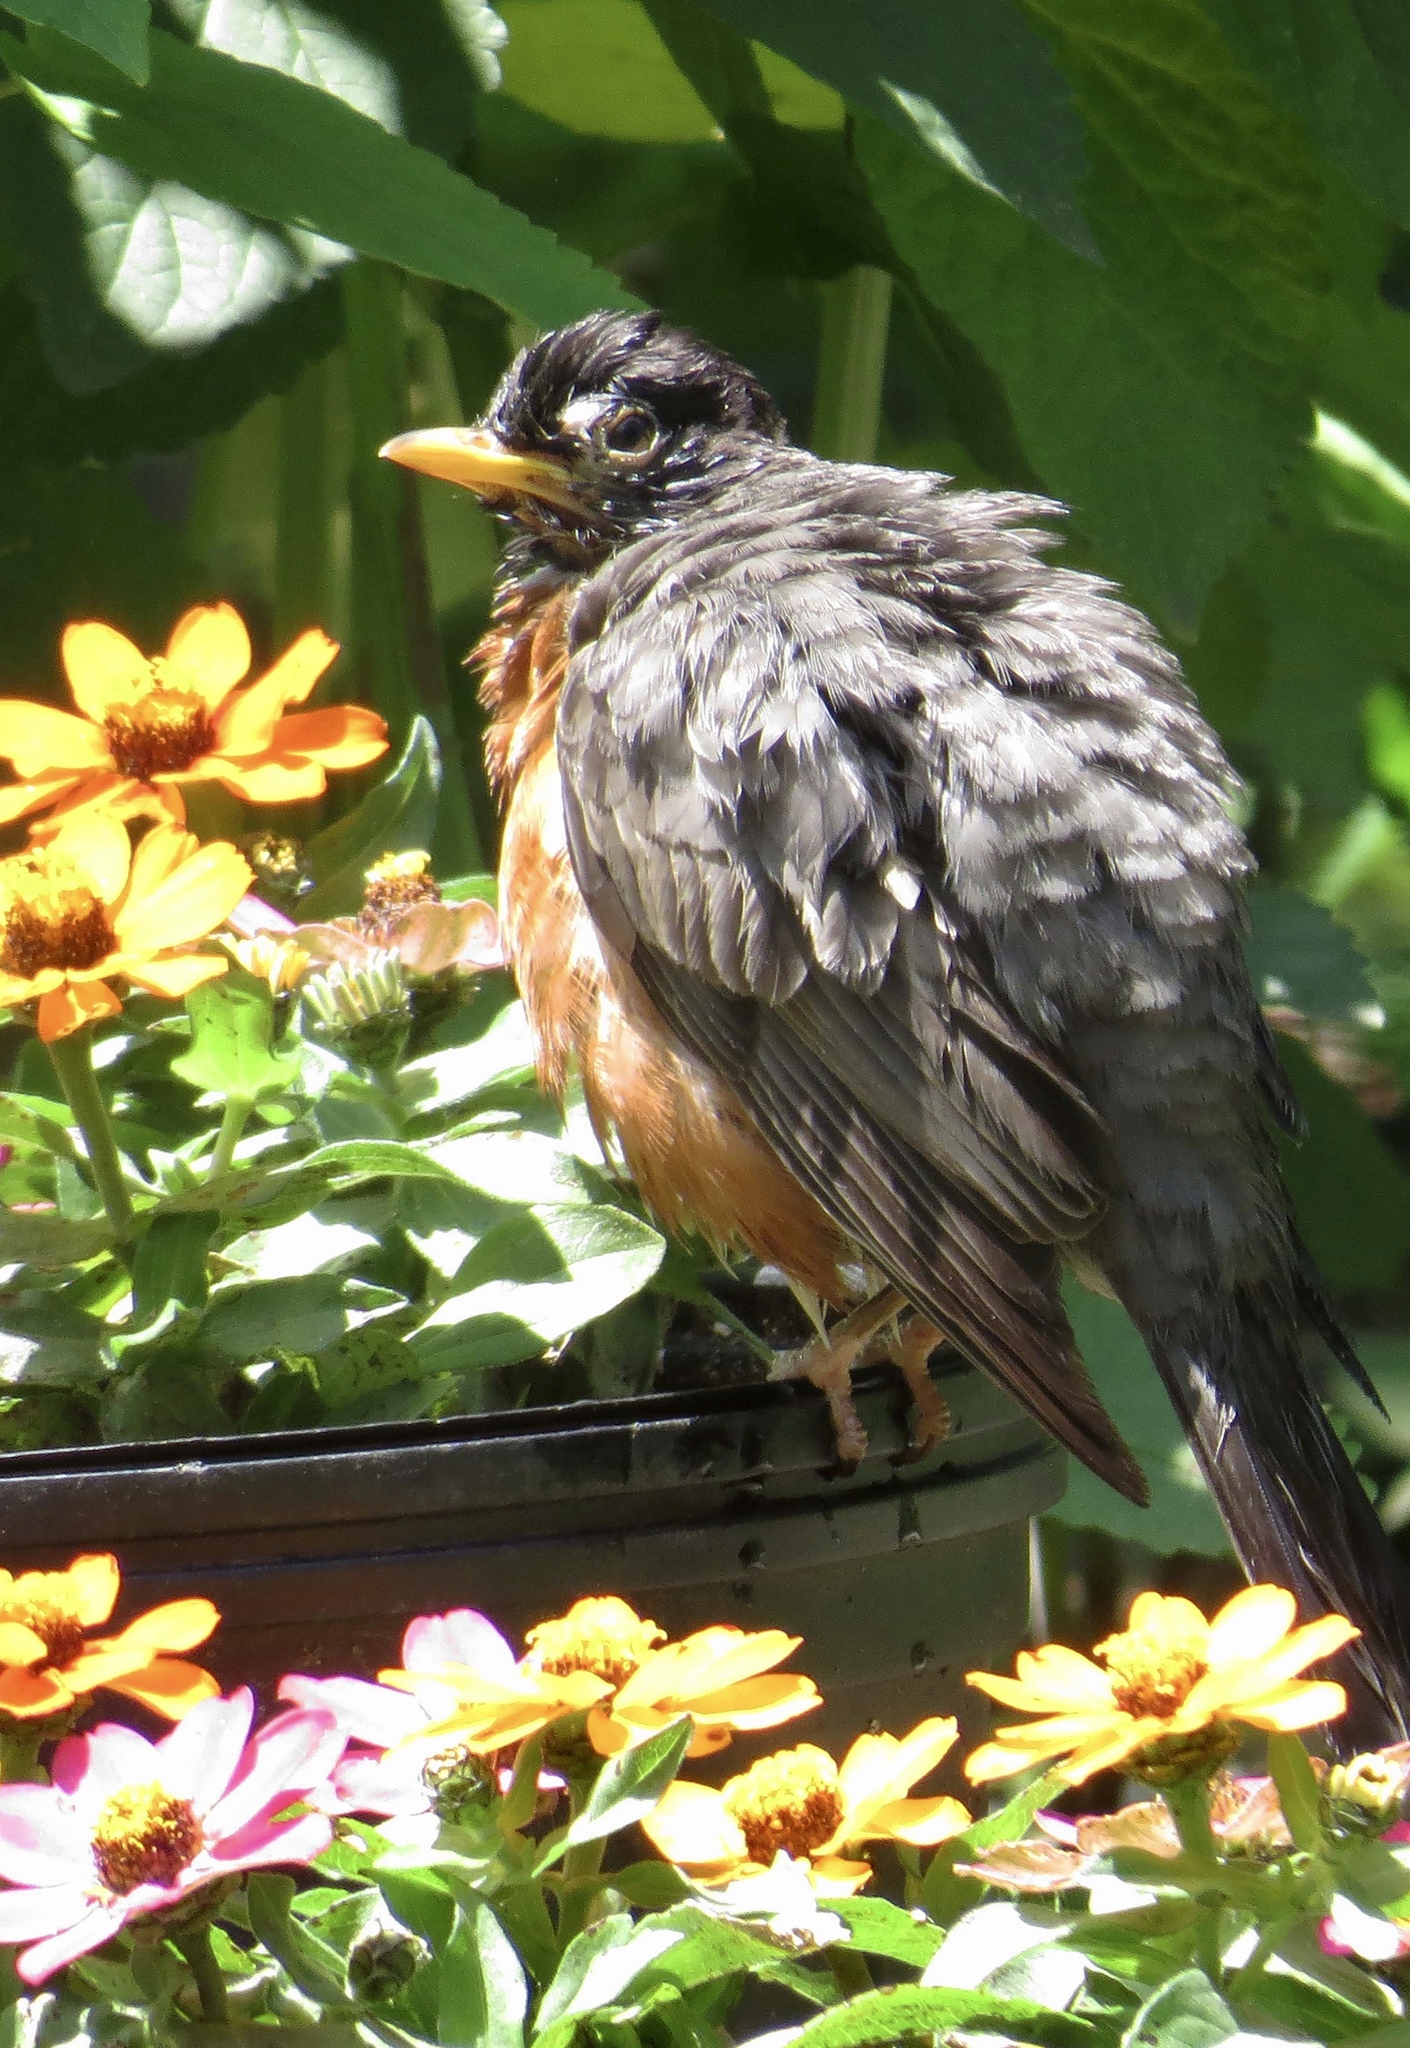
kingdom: Animalia
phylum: Chordata
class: Aves
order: Passeriformes
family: Turdidae
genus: Turdus
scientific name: Turdus migratorius
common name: American robin
